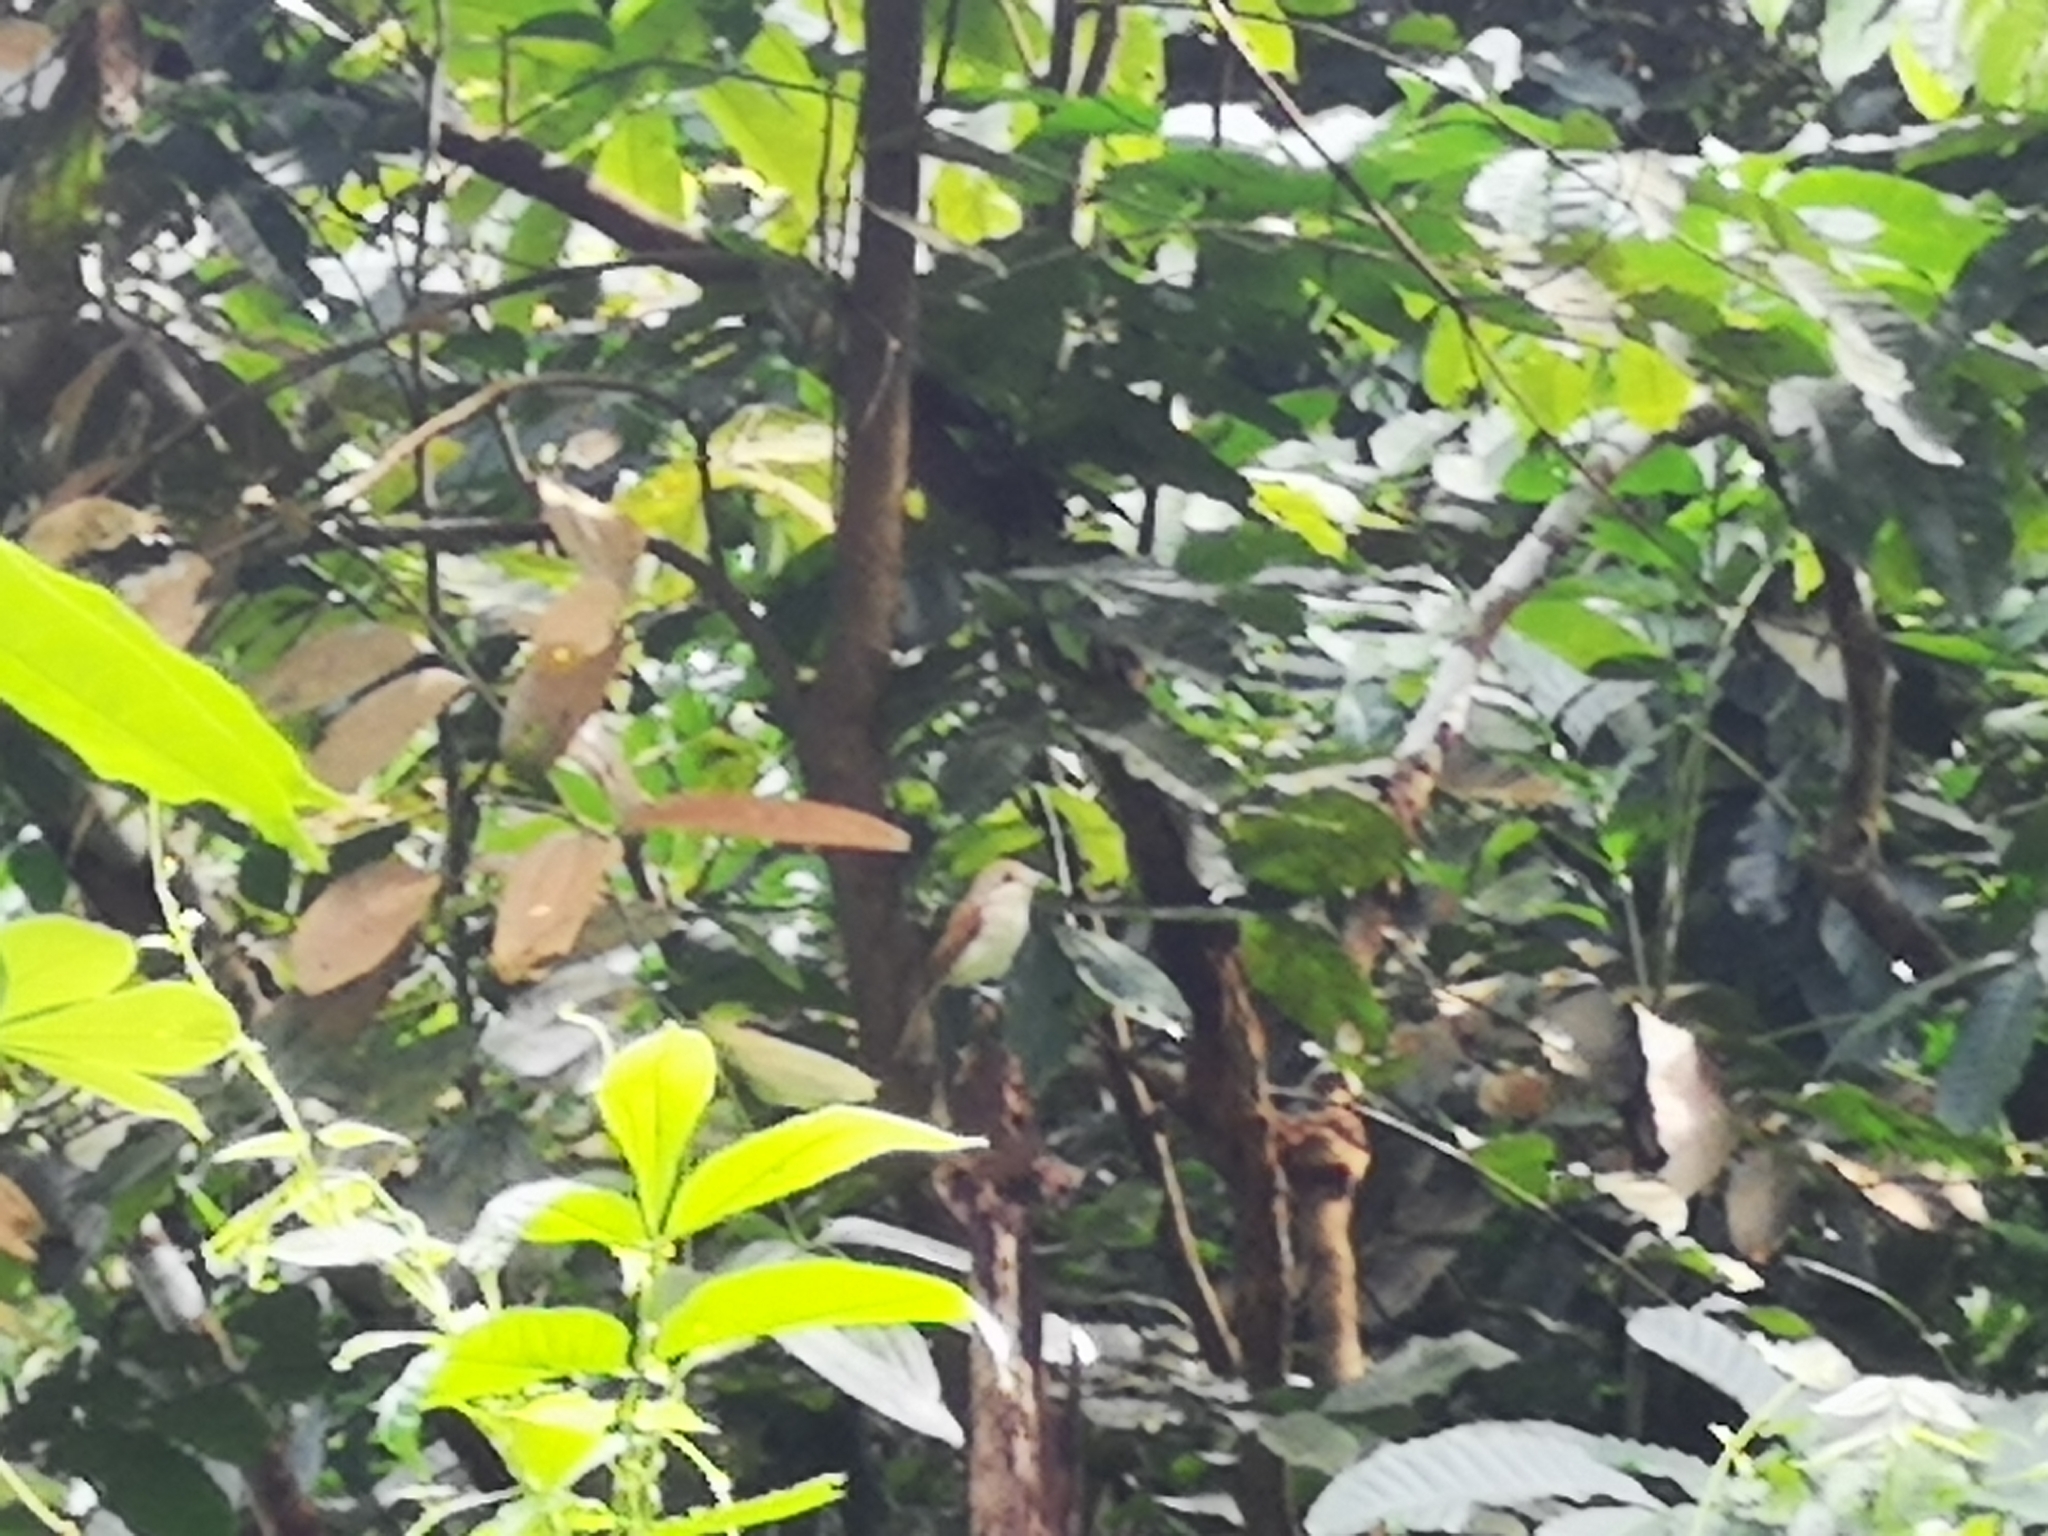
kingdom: Animalia
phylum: Chordata
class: Aves
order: Passeriformes
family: Laniidae
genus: Lanius
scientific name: Lanius tigrinus
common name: Tiger shrike
